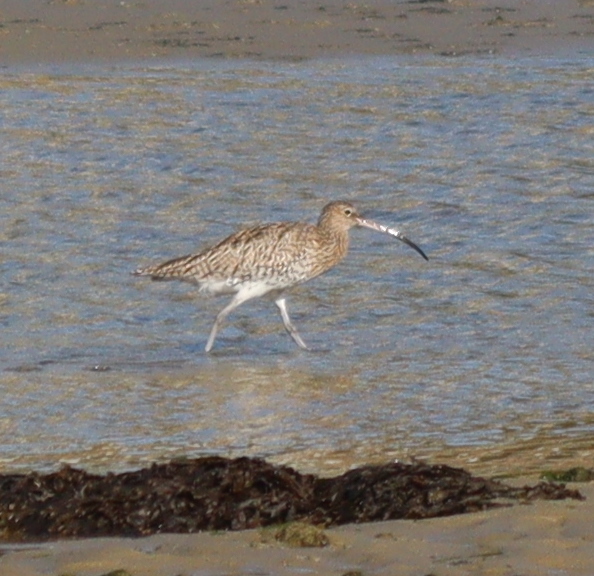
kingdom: Animalia
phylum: Chordata
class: Aves
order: Charadriiformes
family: Scolopacidae
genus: Numenius
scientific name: Numenius arquata
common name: Eurasian curlew
